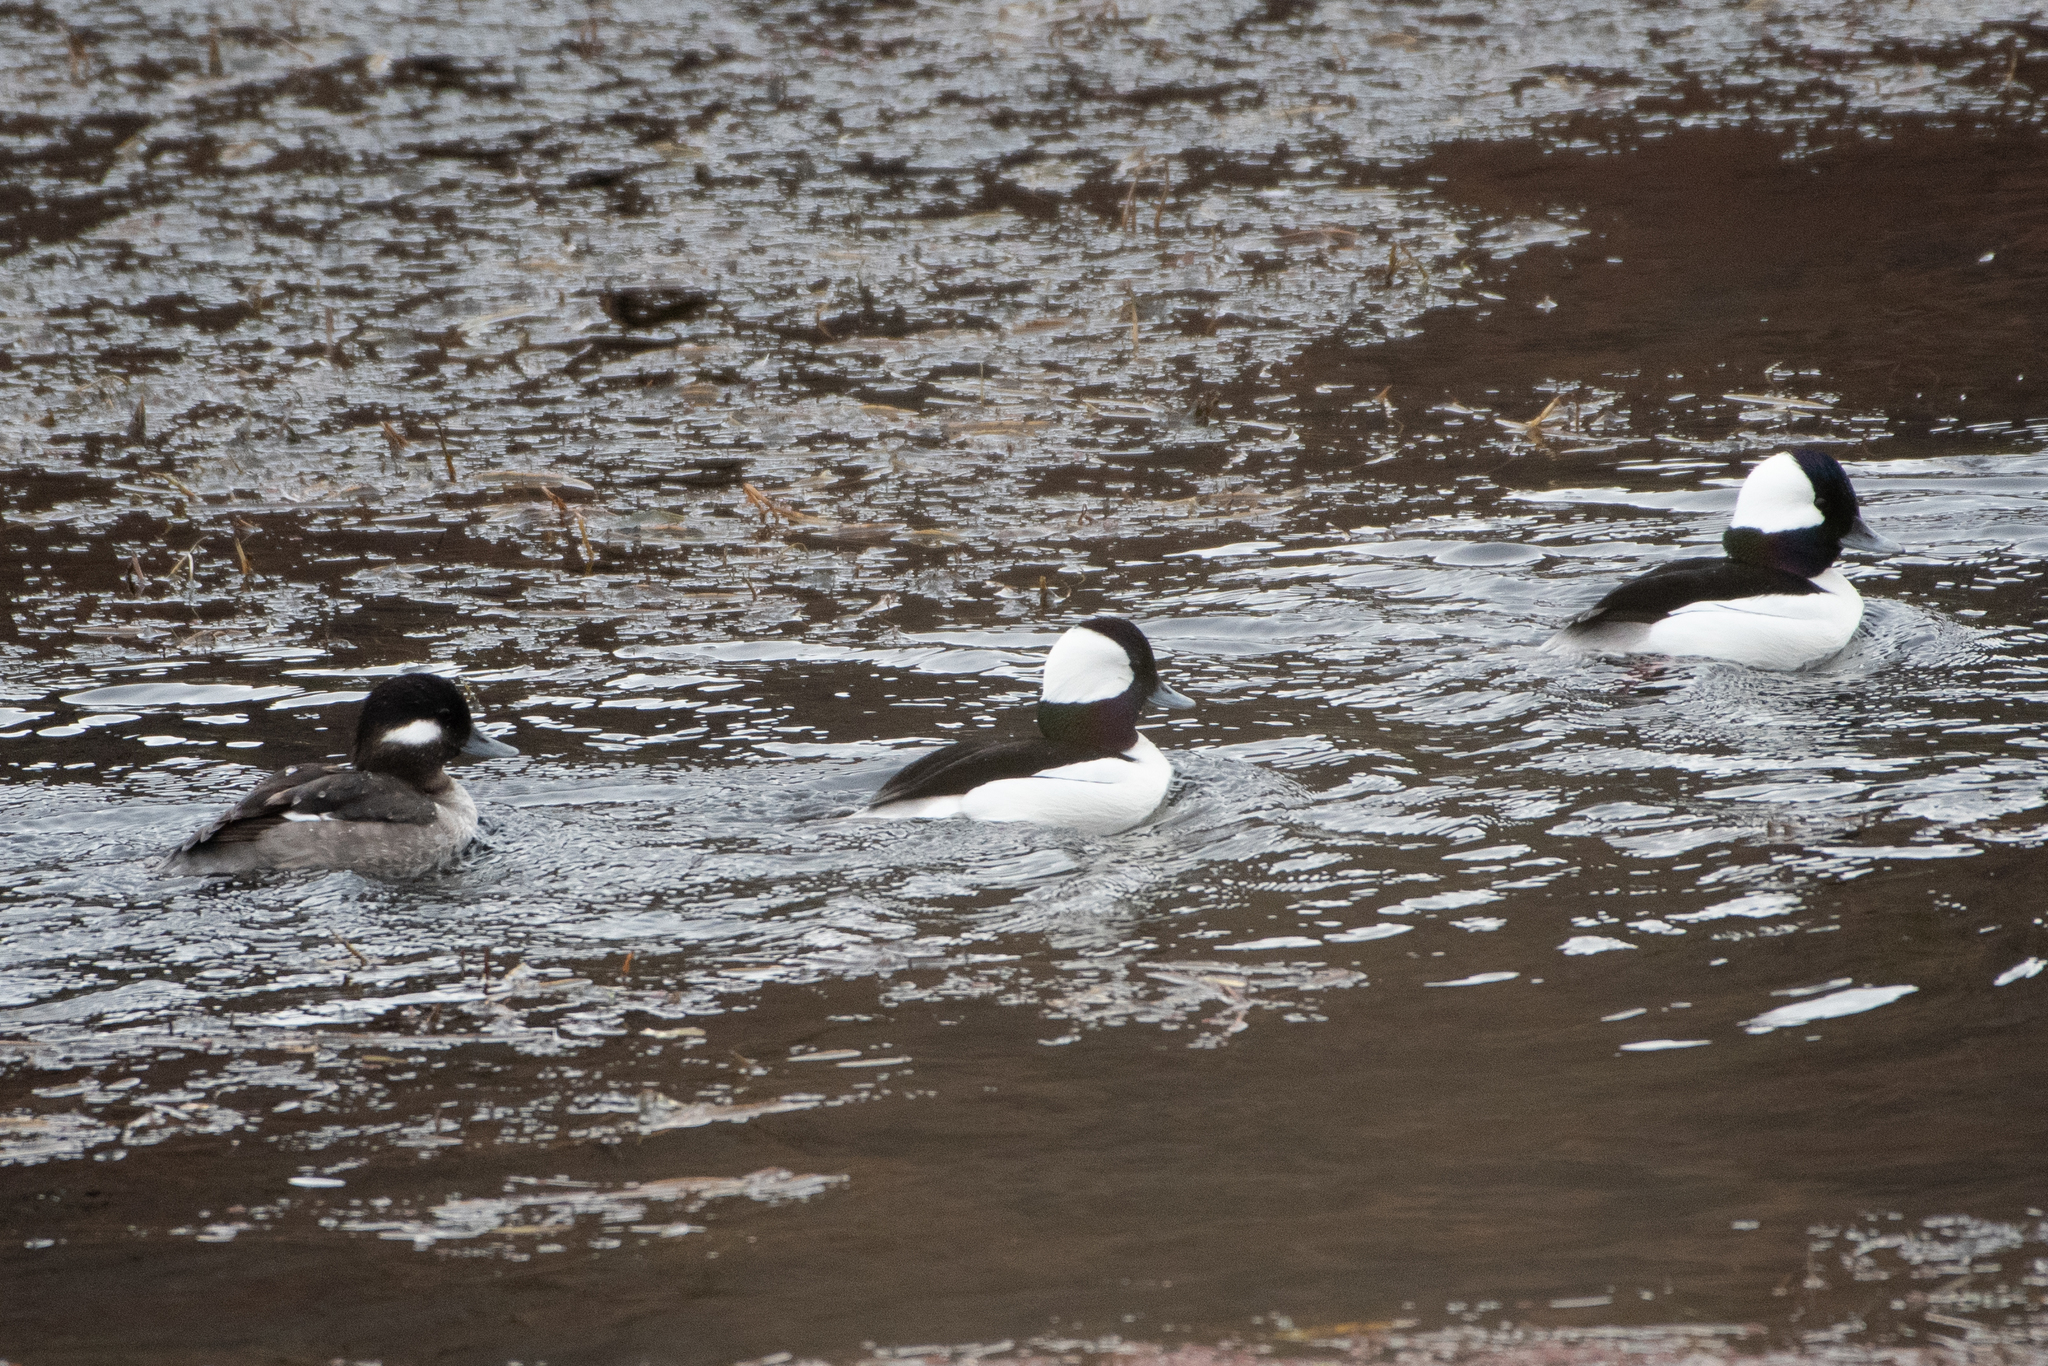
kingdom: Animalia
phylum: Chordata
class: Aves
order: Anseriformes
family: Anatidae
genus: Bucephala
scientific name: Bucephala albeola
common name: Bufflehead
